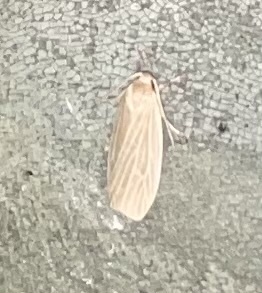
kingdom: Animalia
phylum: Arthropoda
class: Insecta
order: Lepidoptera
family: Erebidae
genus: Crambidia
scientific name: Crambidia pallida
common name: Pale lichen moth
